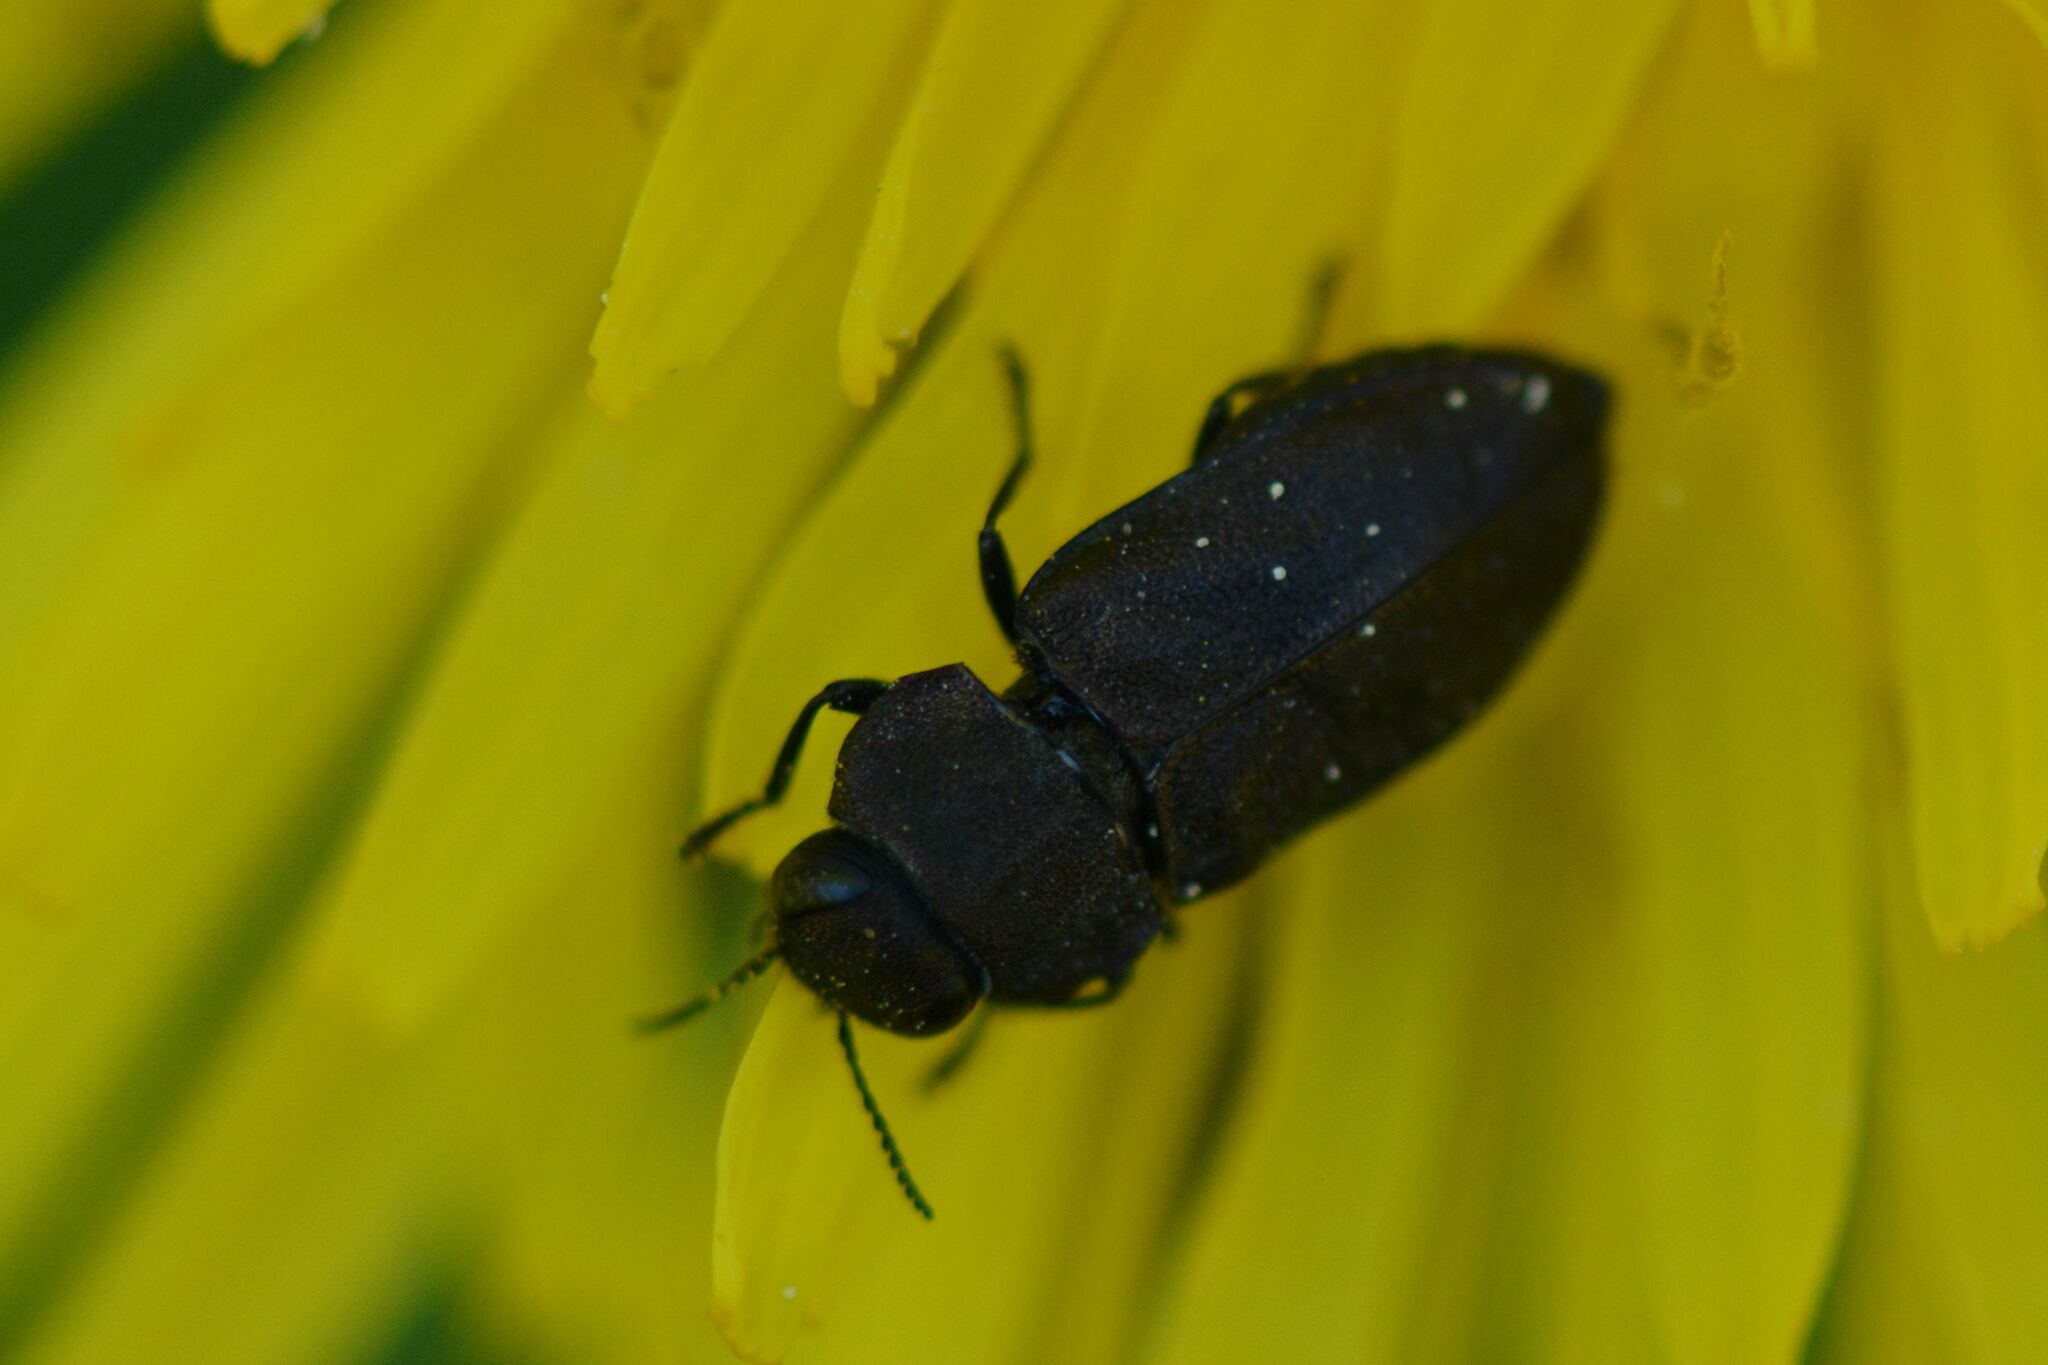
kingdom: Animalia
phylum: Arthropoda
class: Insecta
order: Coleoptera
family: Buprestidae
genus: Anthaxia
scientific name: Anthaxia helvetica
